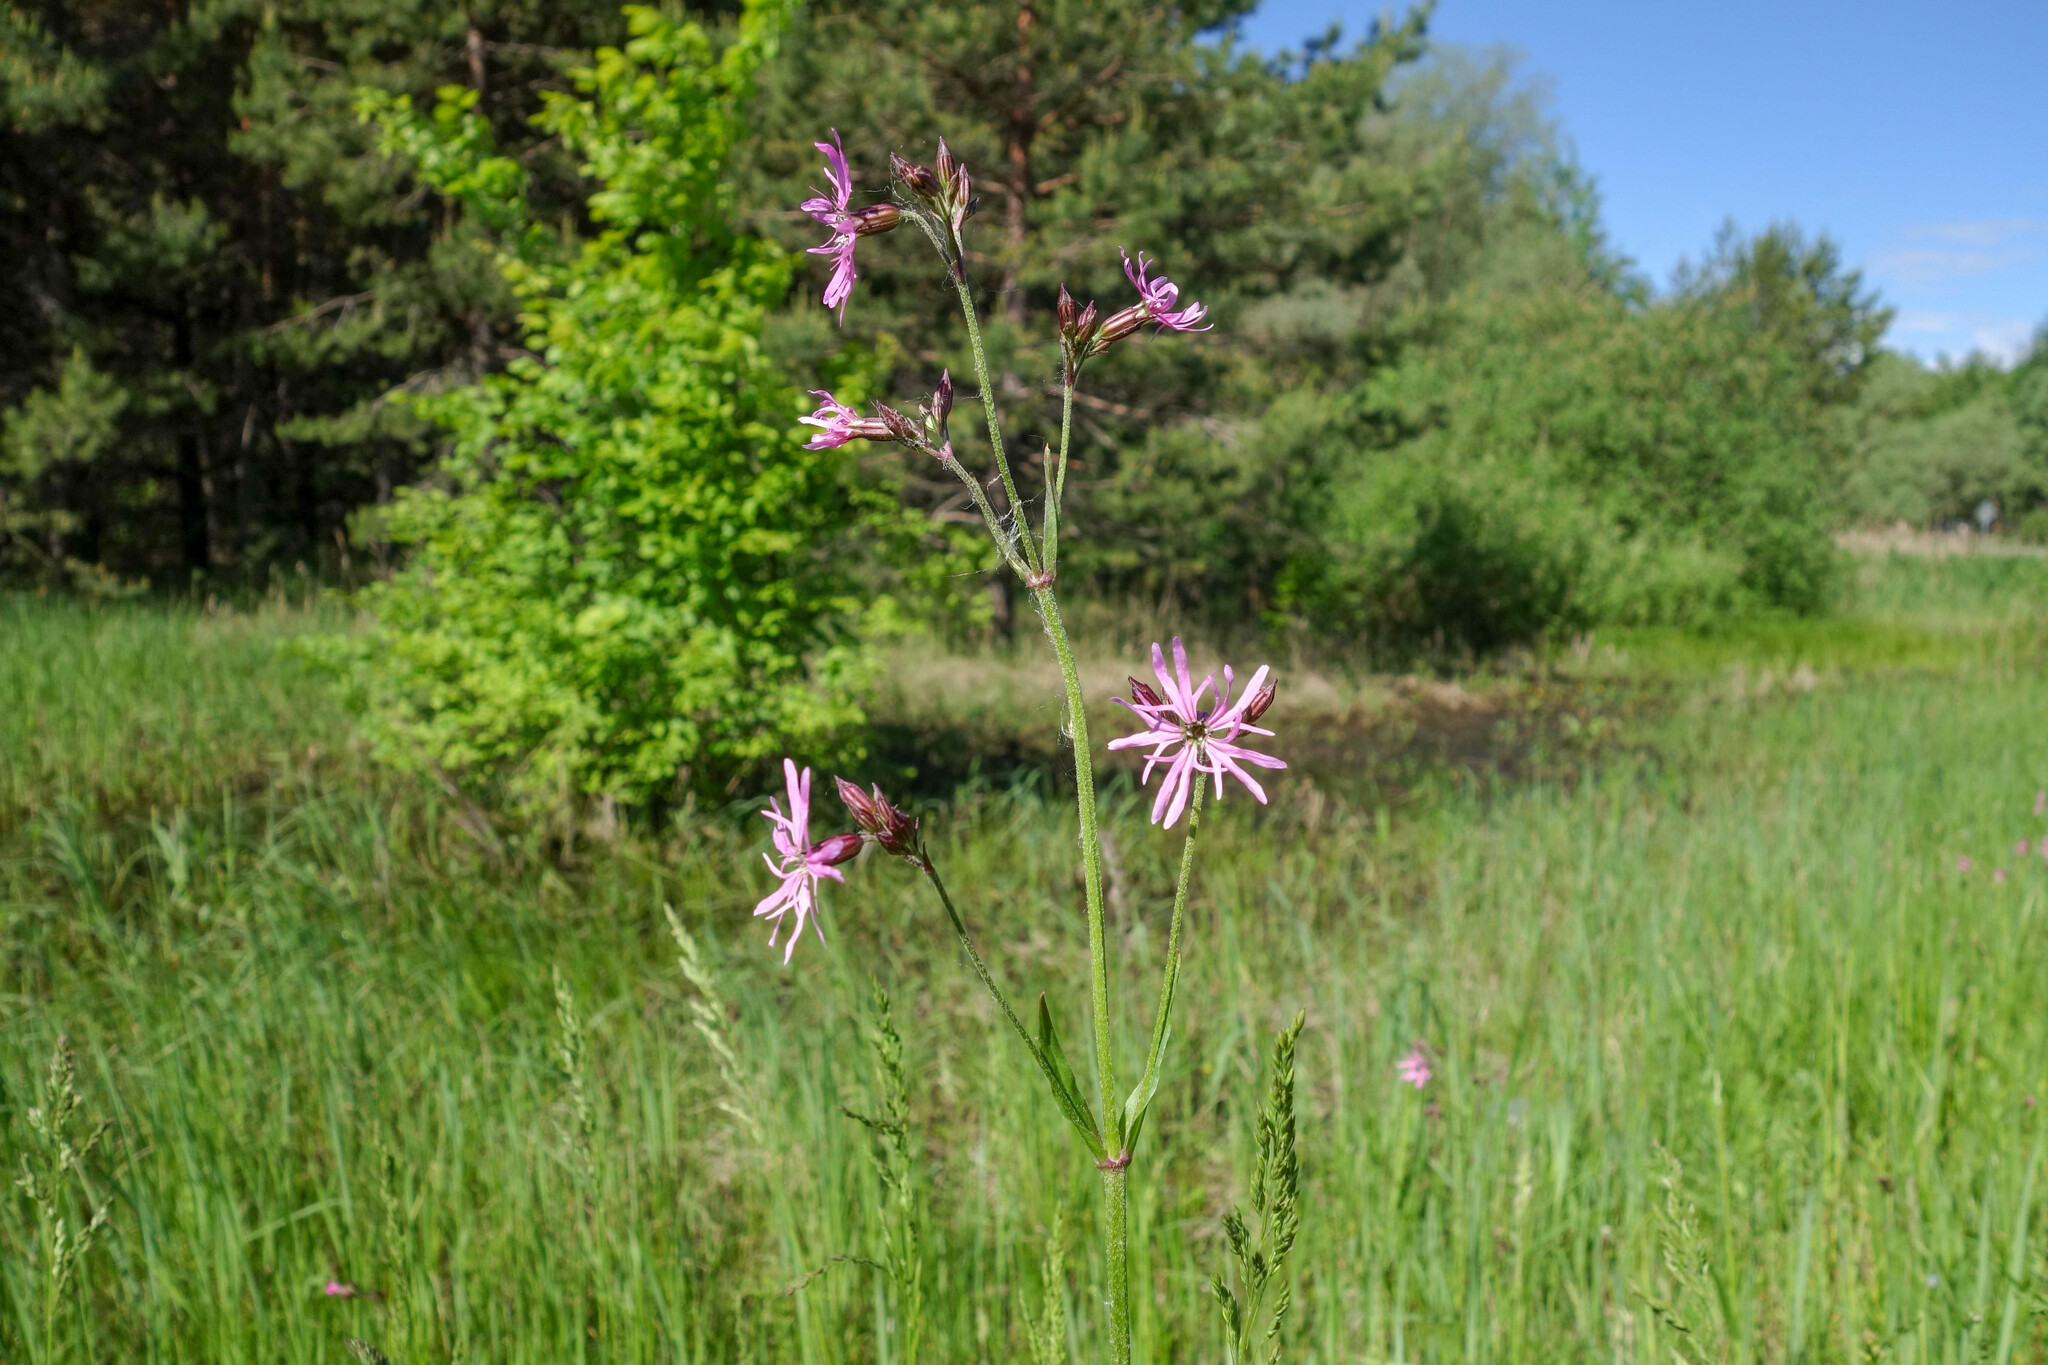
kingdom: Plantae
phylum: Tracheophyta
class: Magnoliopsida
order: Caryophyllales
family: Caryophyllaceae
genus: Silene
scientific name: Silene flos-cuculi
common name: Ragged-robin
